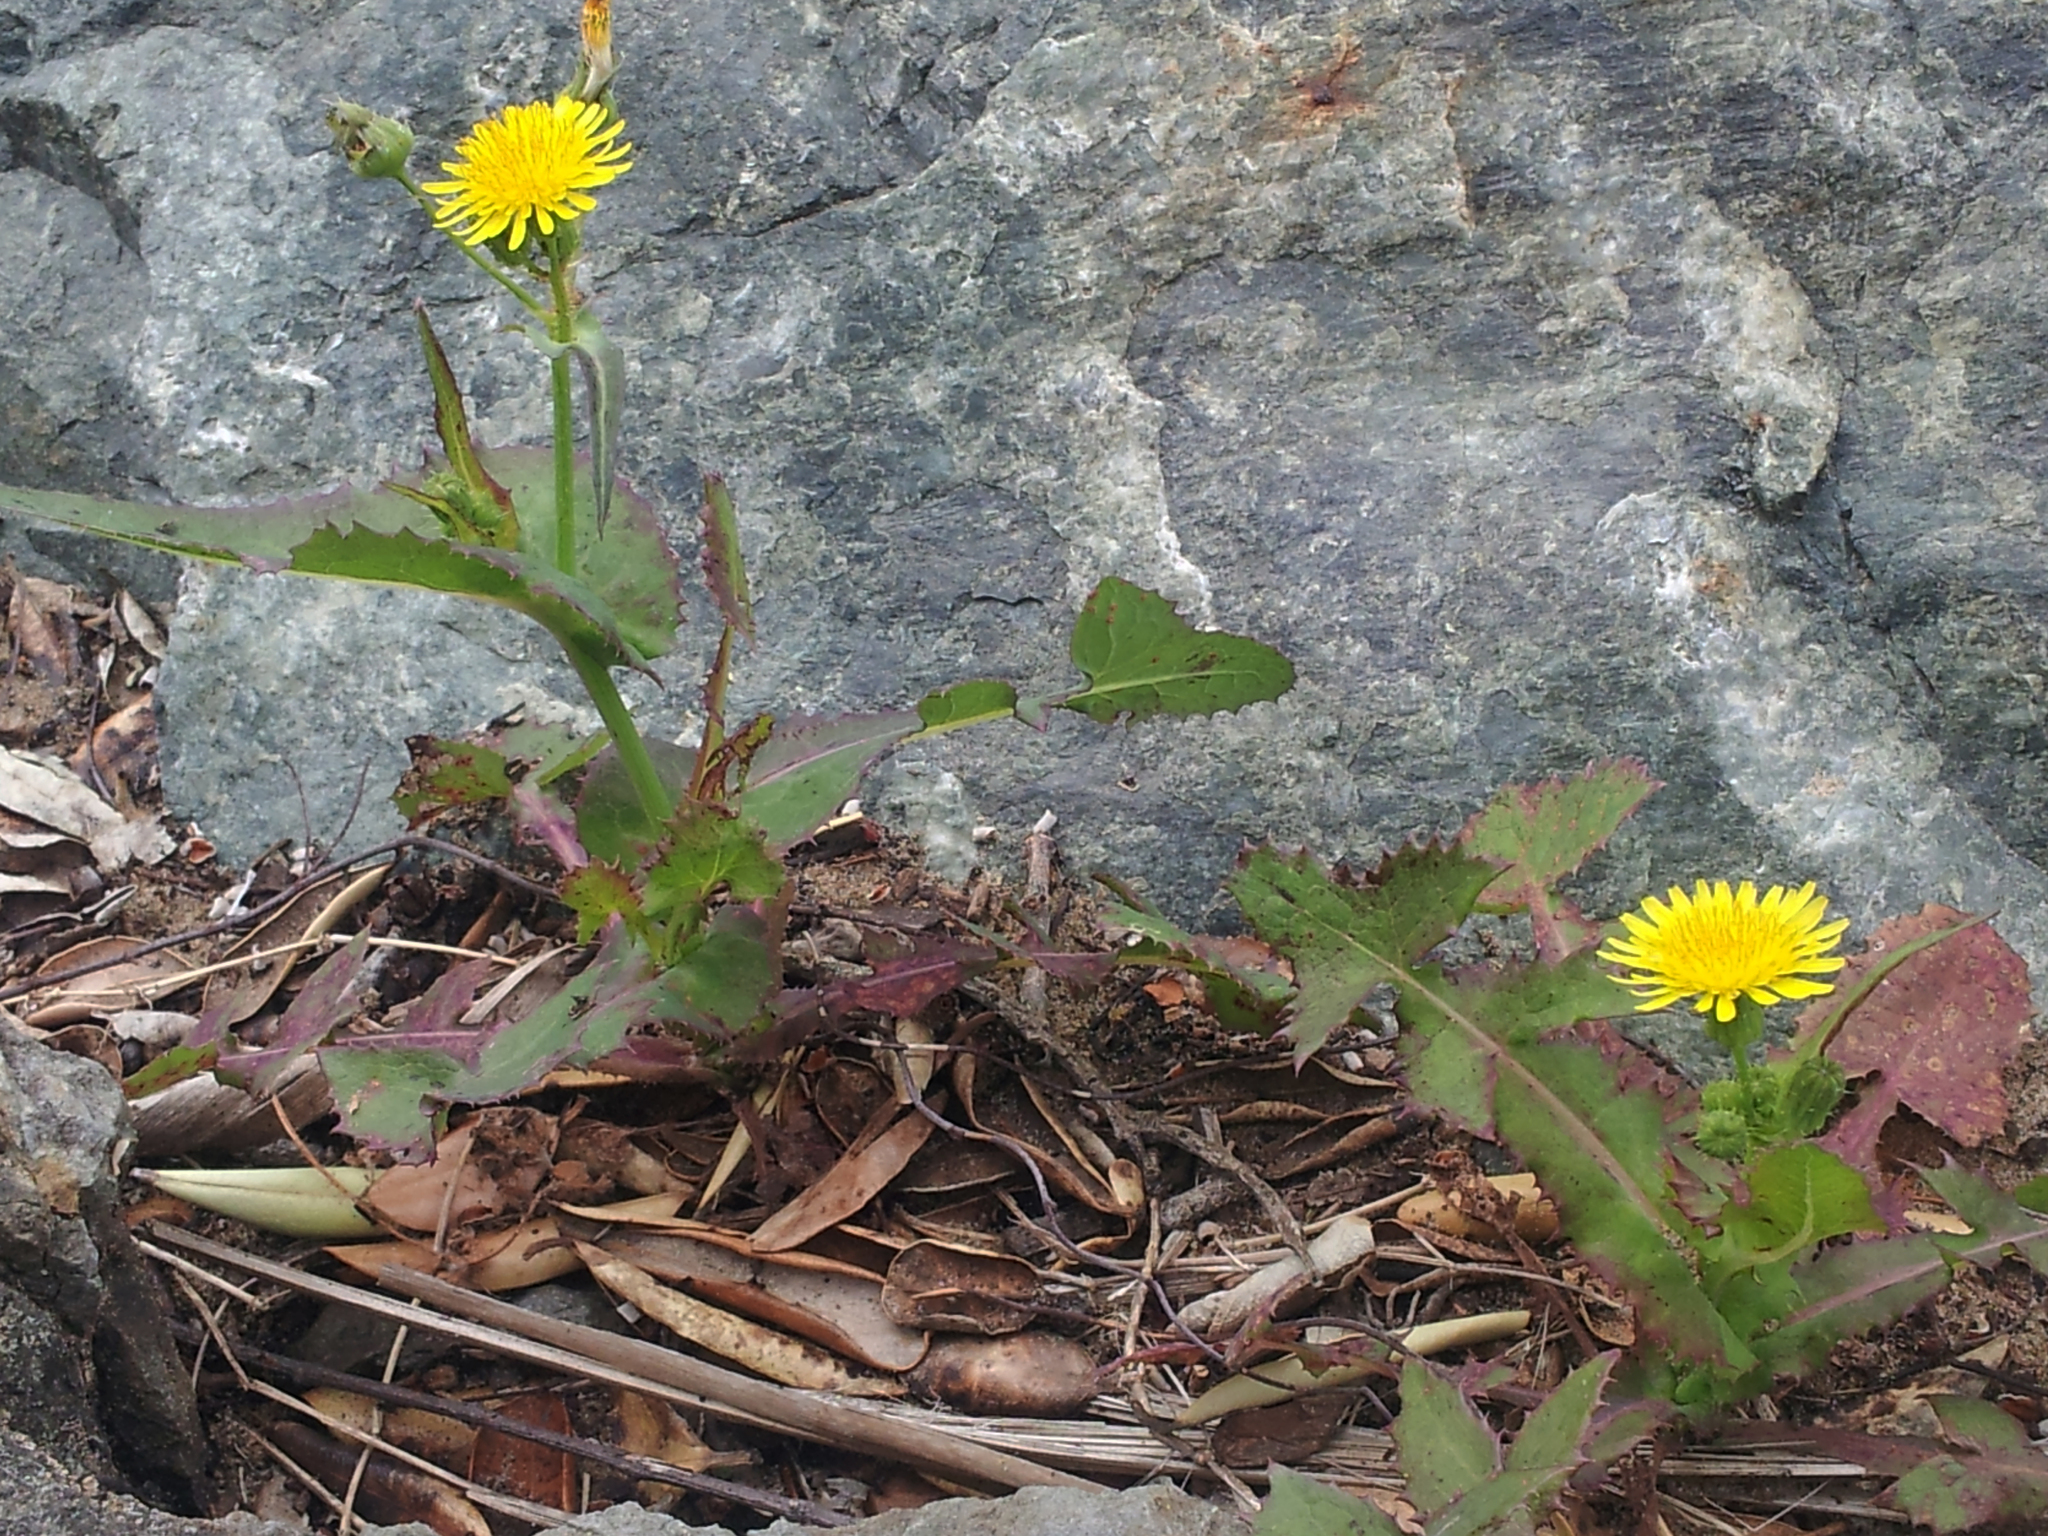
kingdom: Plantae
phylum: Tracheophyta
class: Magnoliopsida
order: Asterales
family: Asteraceae
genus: Sonchus
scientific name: Sonchus oleraceus
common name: Common sowthistle
